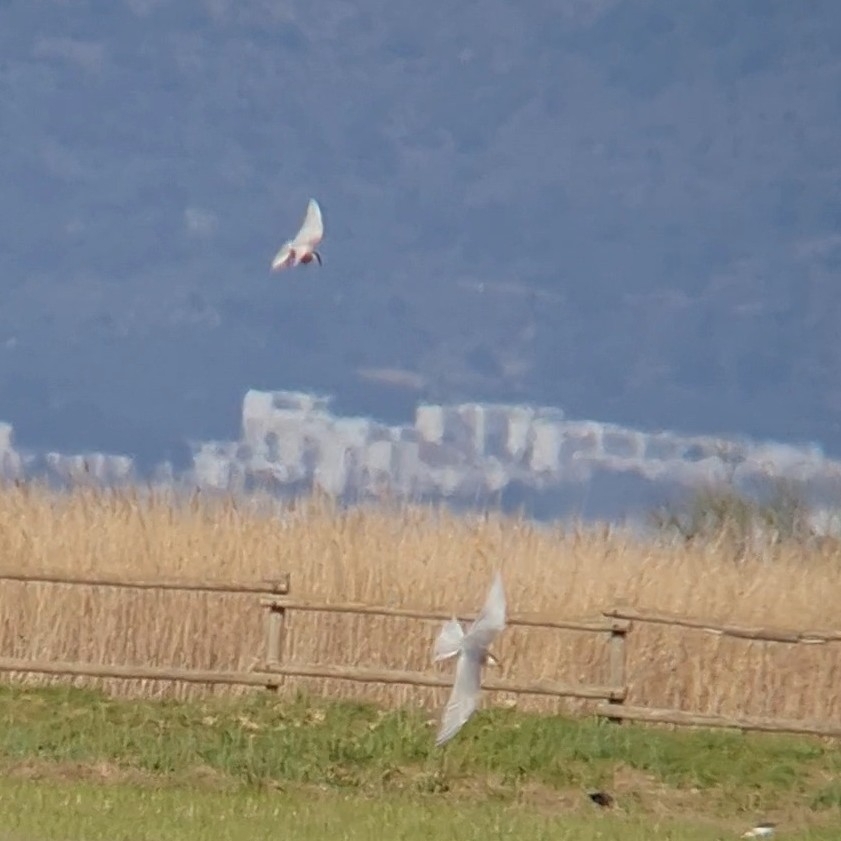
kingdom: Animalia
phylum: Chordata
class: Aves
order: Charadriiformes
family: Laridae
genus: Chlidonias
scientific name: Chlidonias hybrida
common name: Whiskered tern
